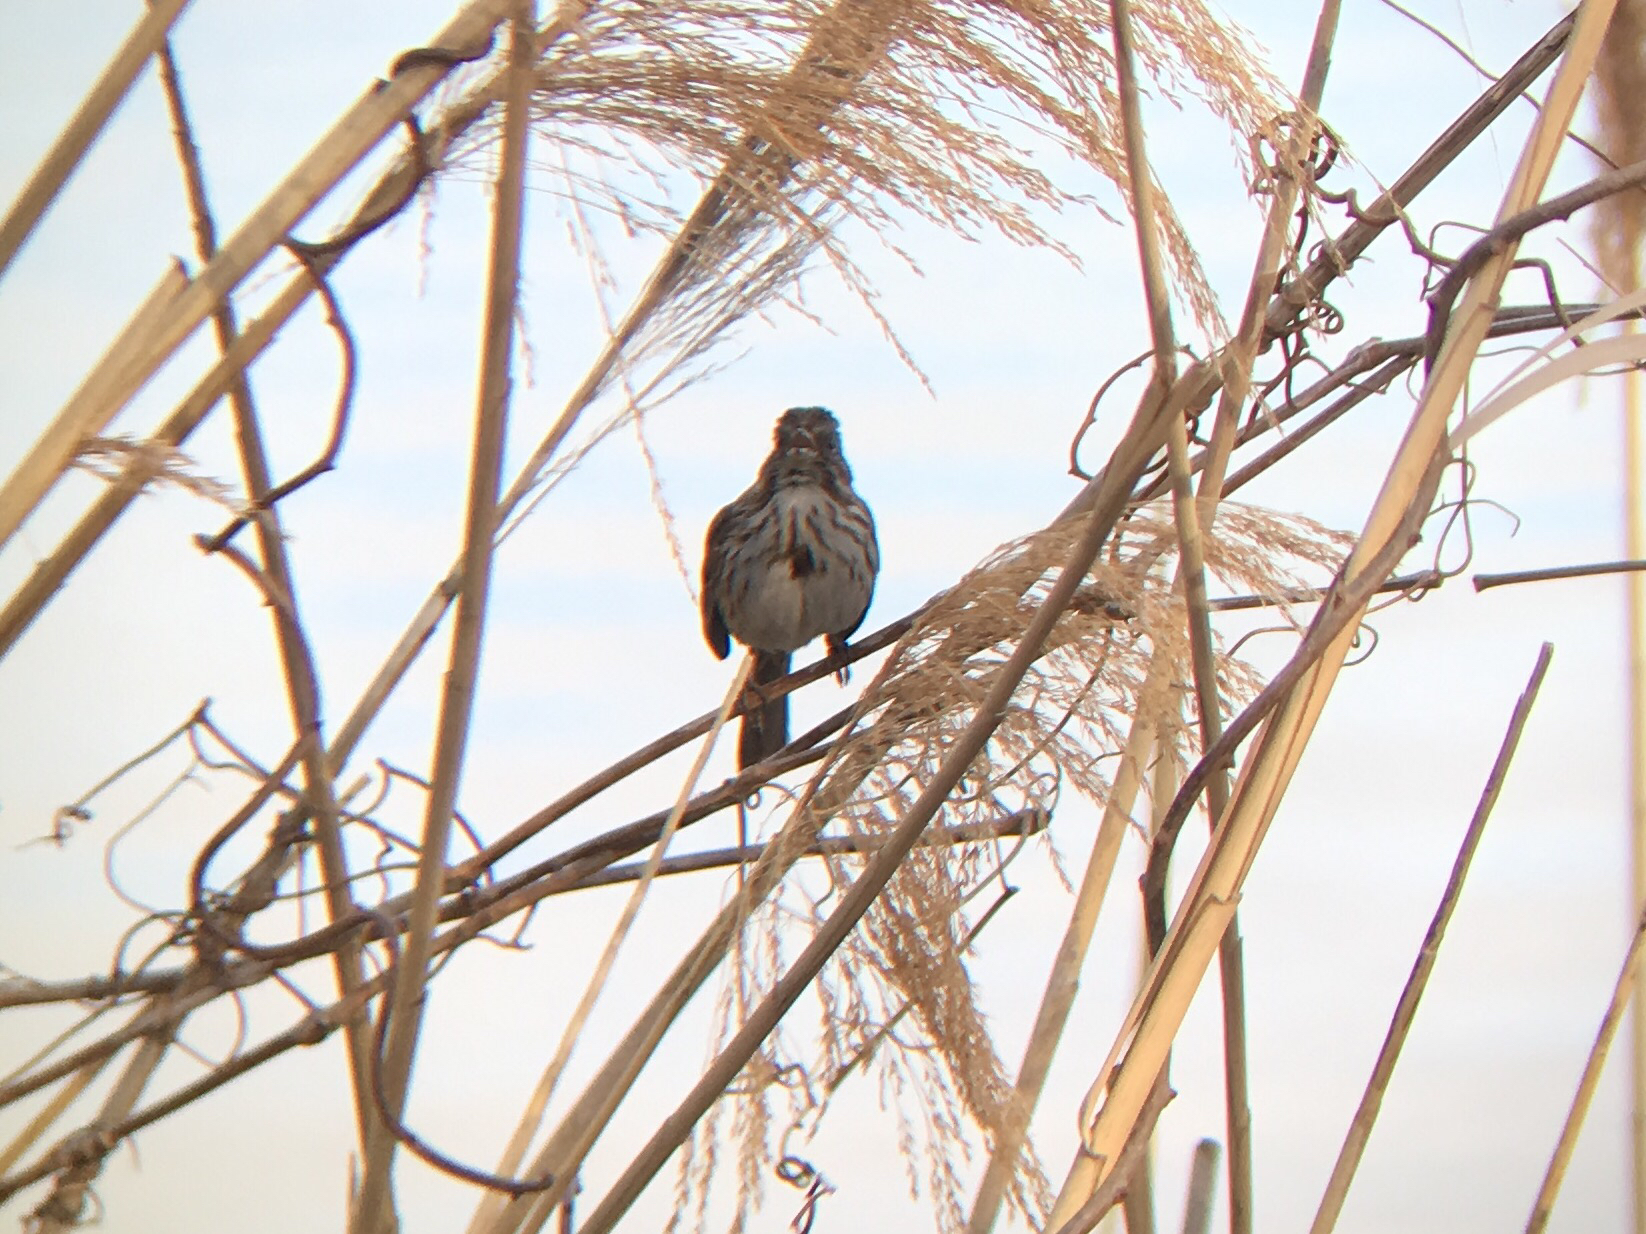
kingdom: Animalia
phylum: Chordata
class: Aves
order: Passeriformes
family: Passerellidae
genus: Melospiza
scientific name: Melospiza melodia
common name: Song sparrow
